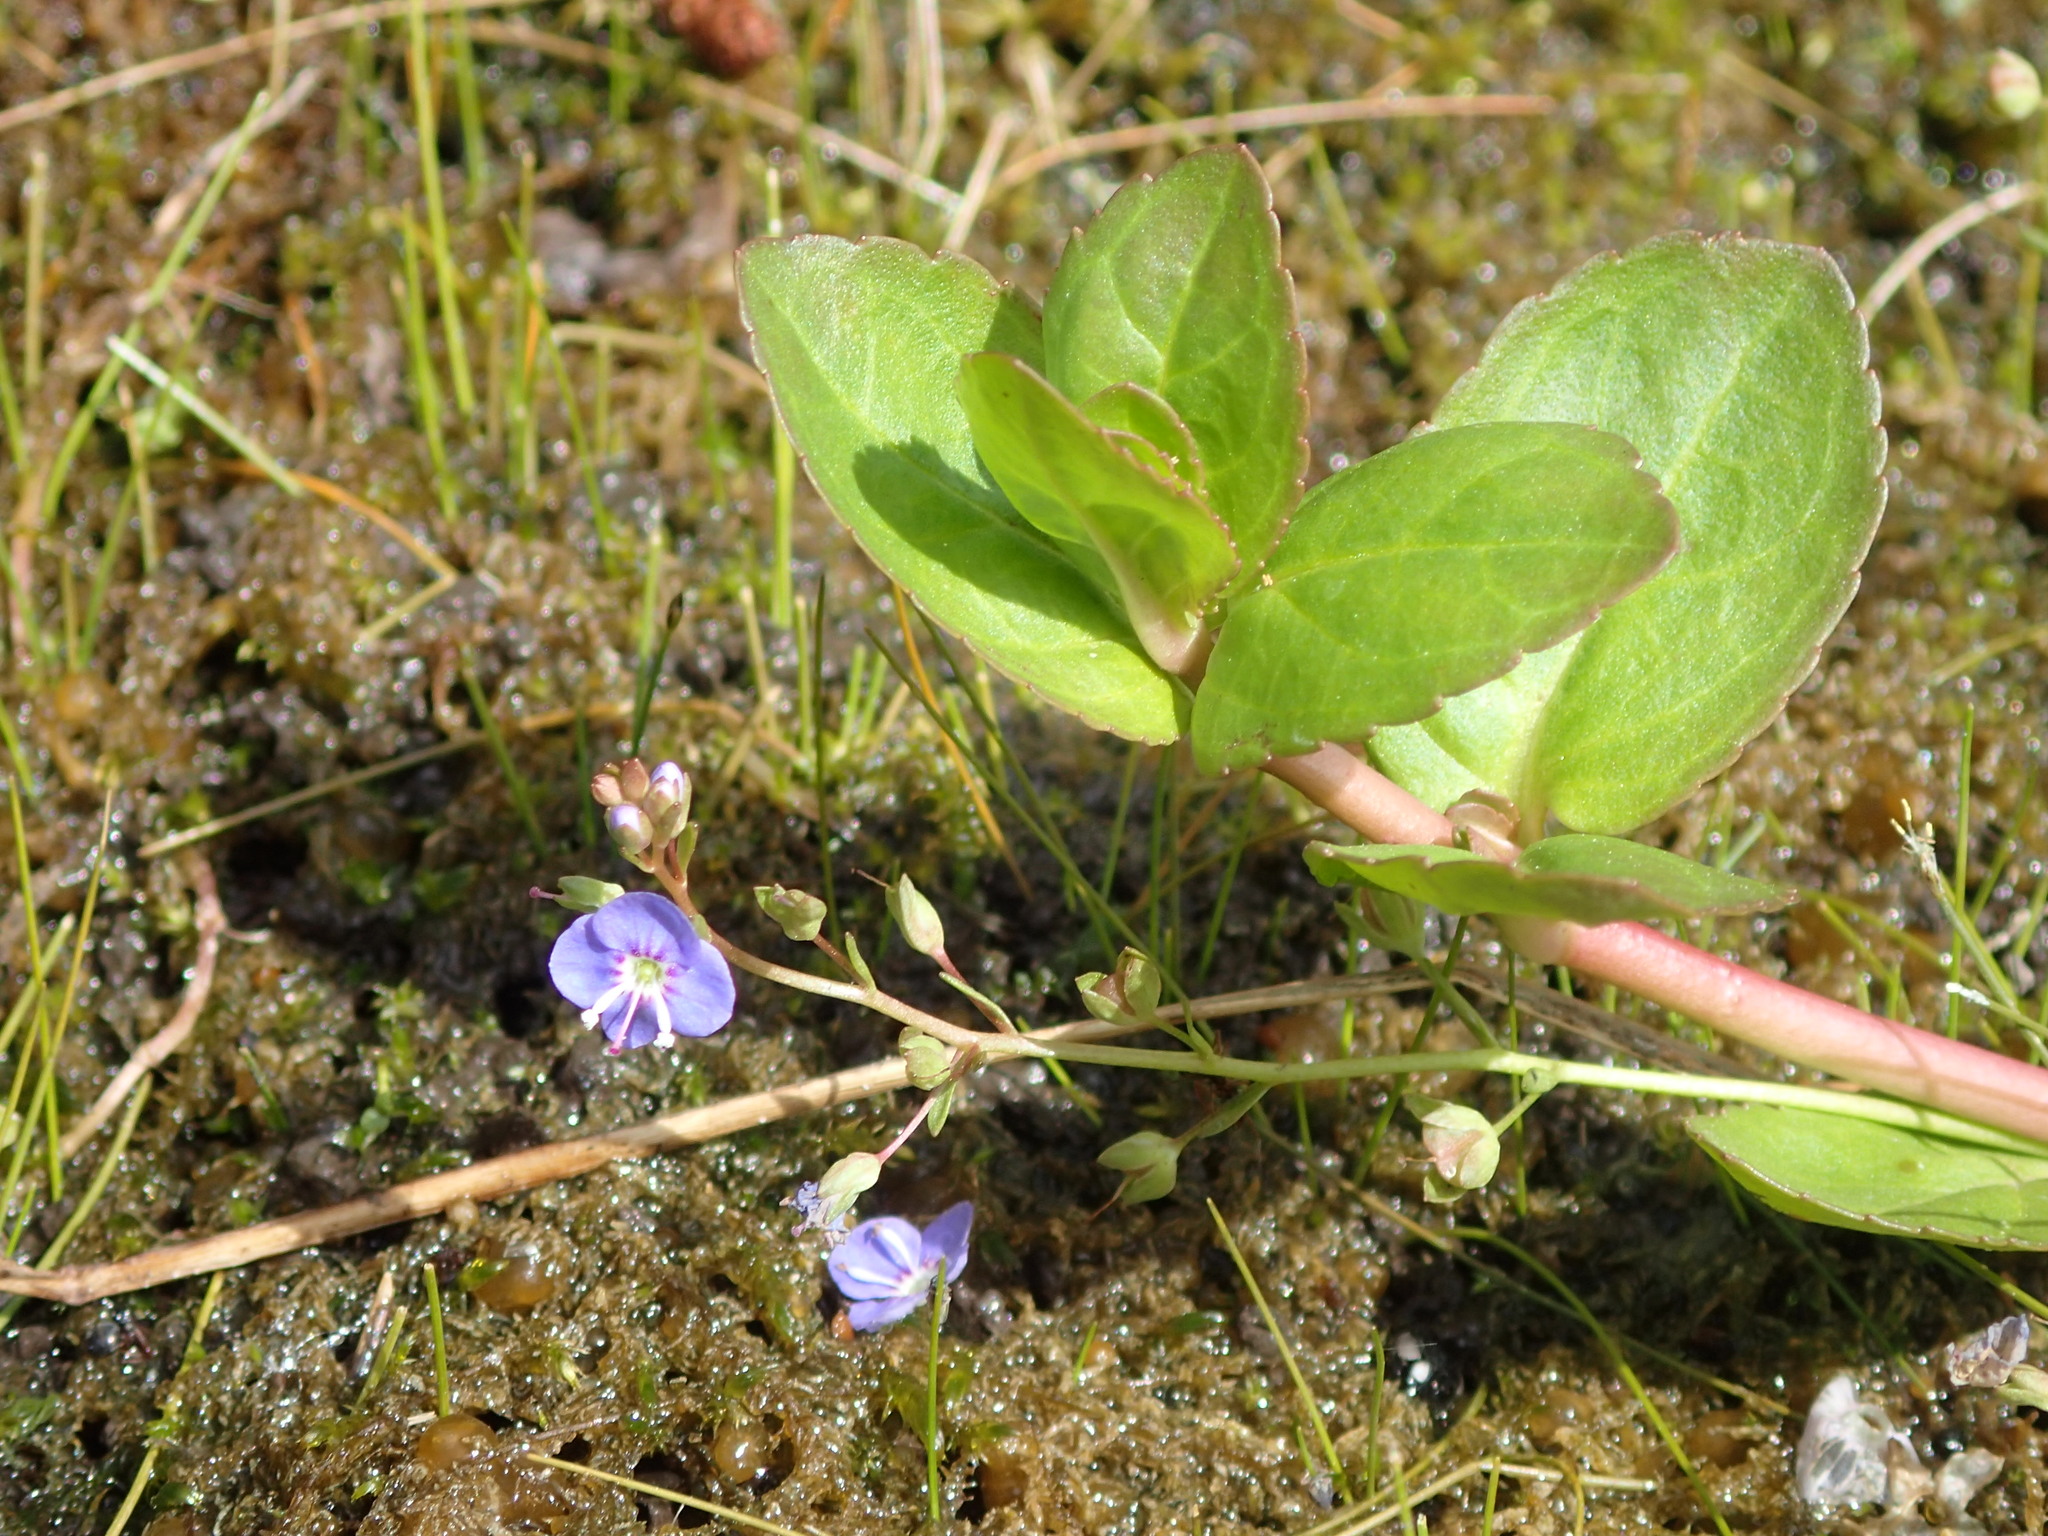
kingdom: Plantae
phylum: Tracheophyta
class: Magnoliopsida
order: Lamiales
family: Plantaginaceae
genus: Veronica
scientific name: Veronica americana
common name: American brooklime
